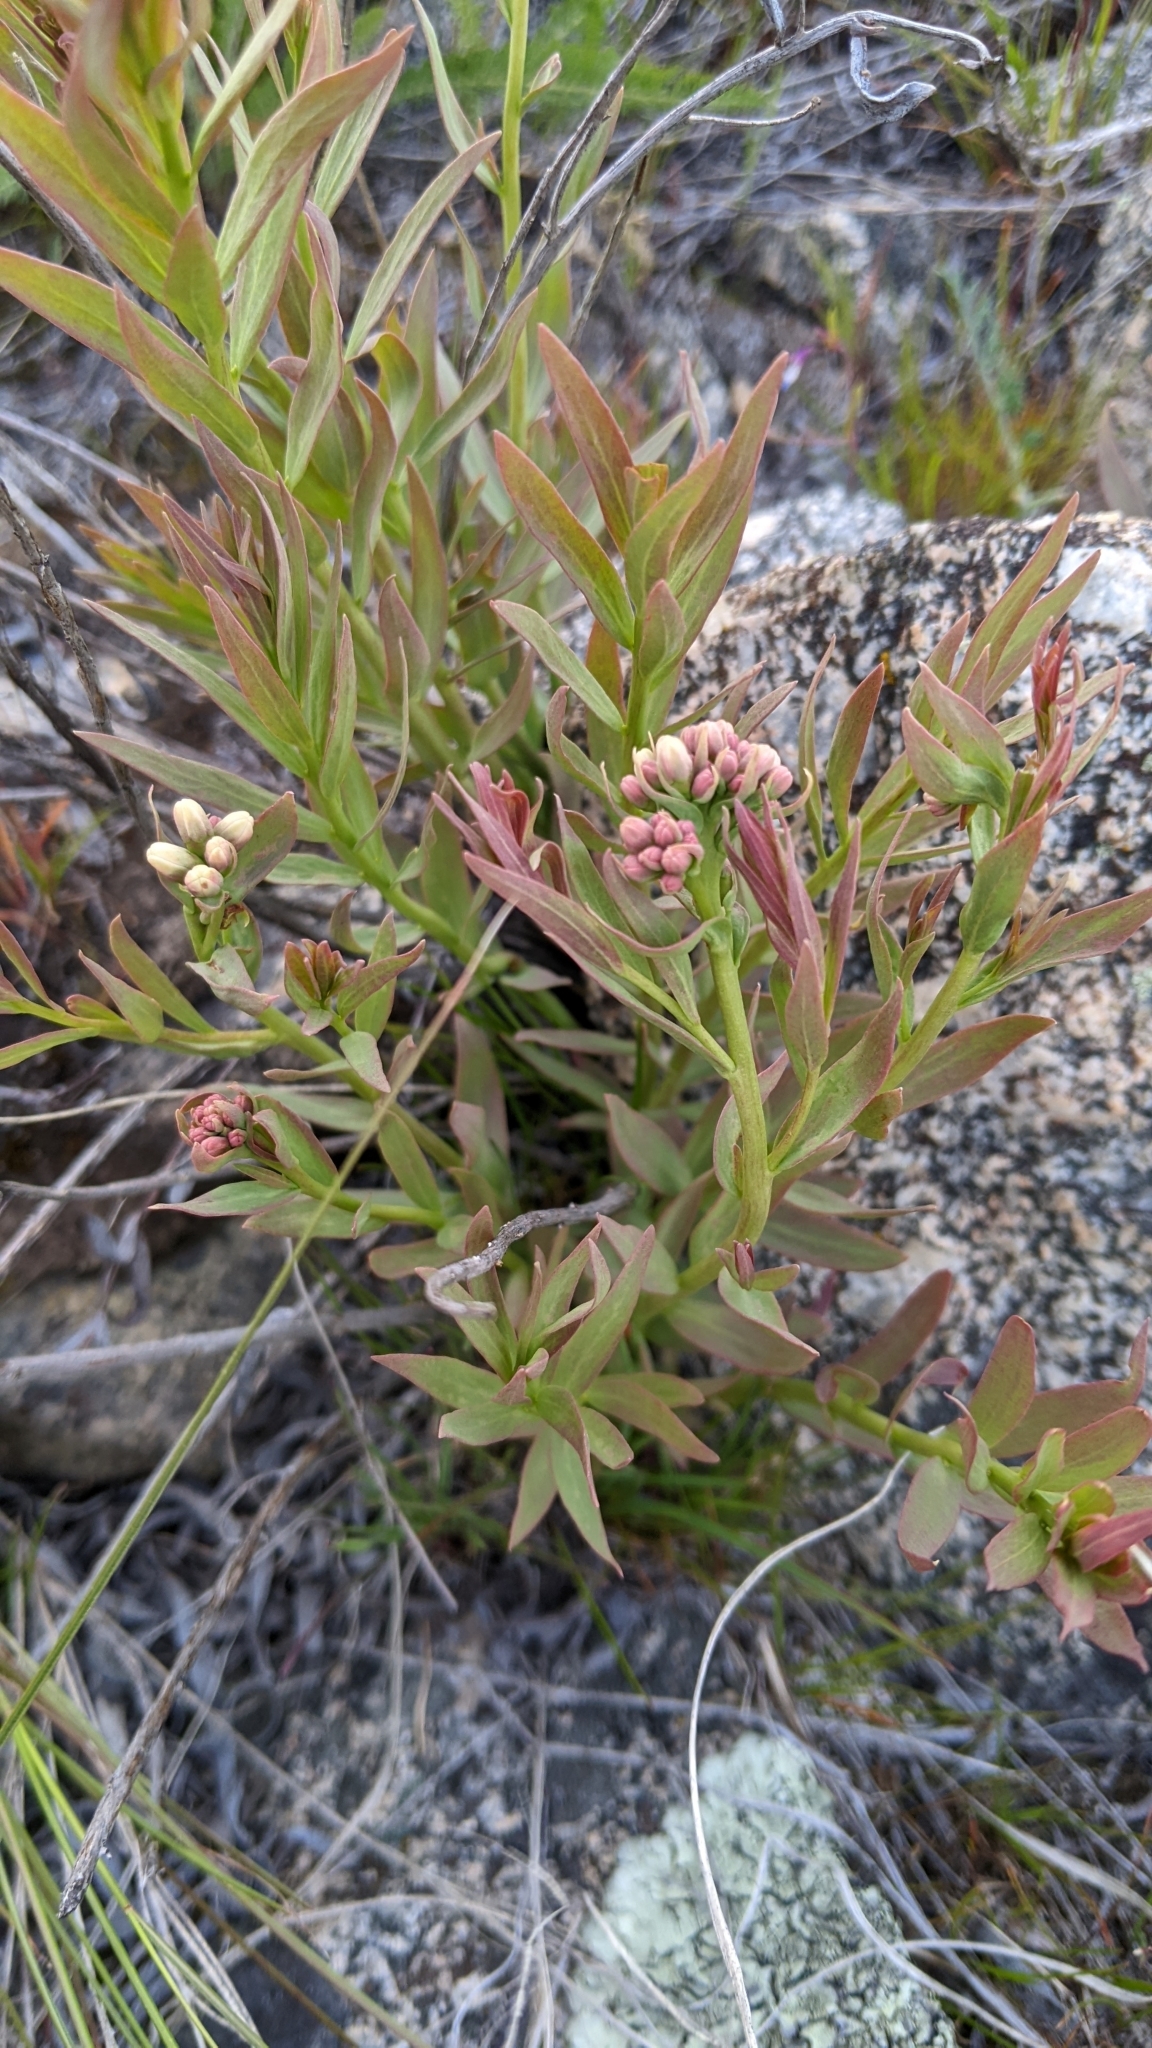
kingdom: Plantae
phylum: Tracheophyta
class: Magnoliopsida
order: Santalales
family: Comandraceae
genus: Comandra
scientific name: Comandra umbellata
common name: Bastard toadflax
